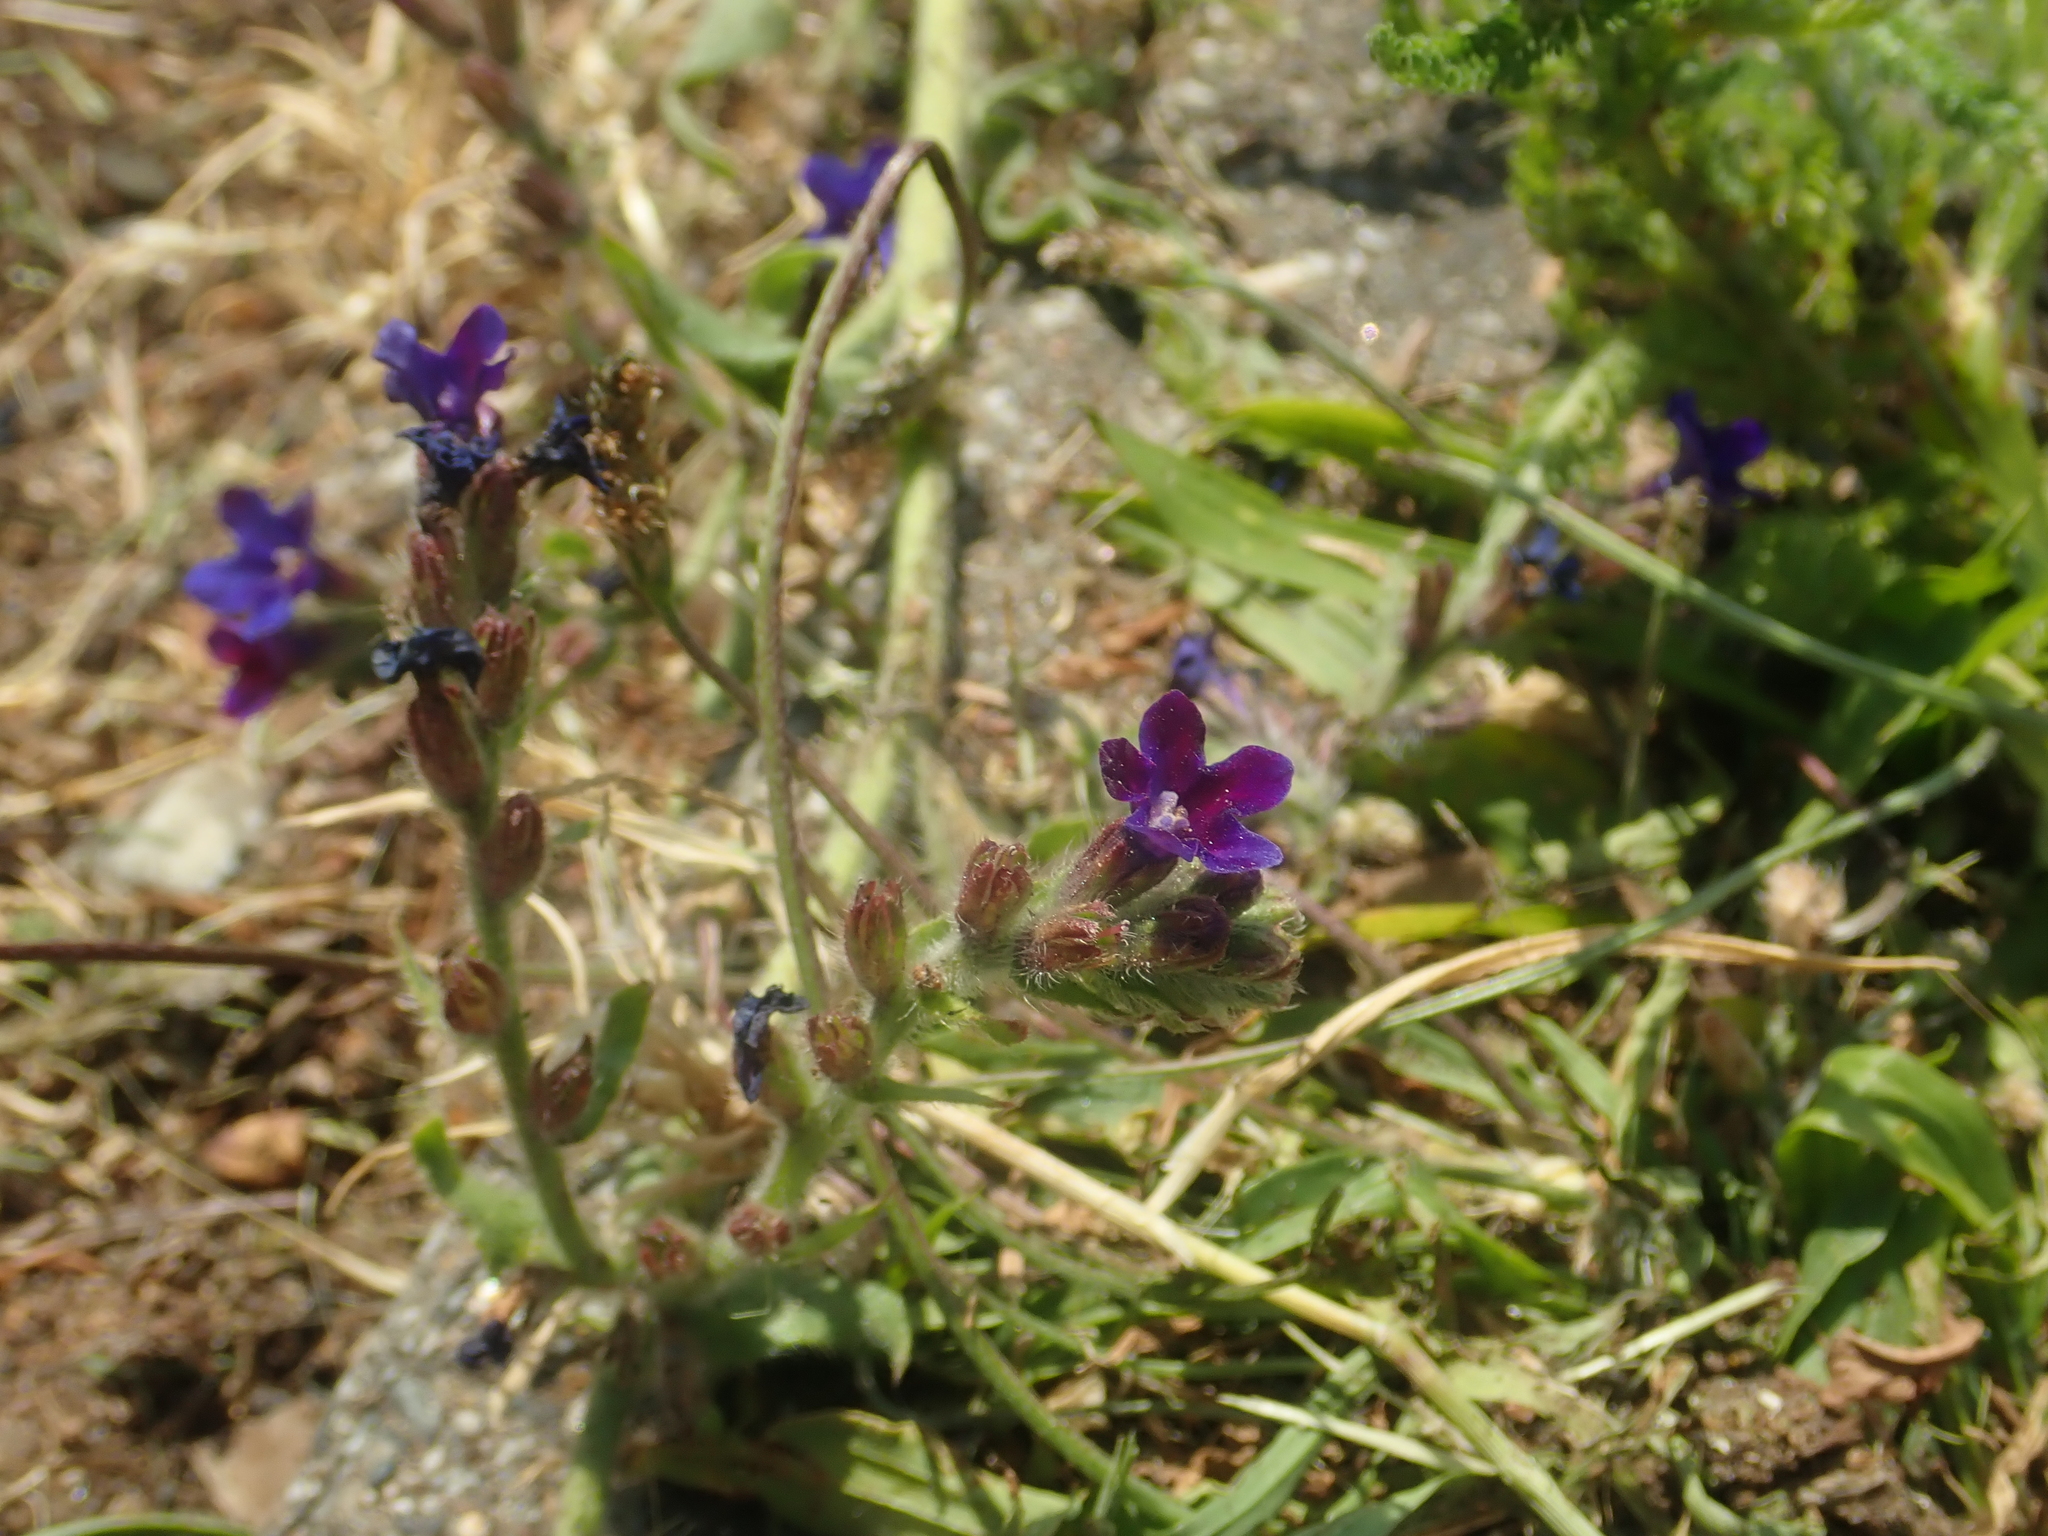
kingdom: Plantae
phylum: Tracheophyta
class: Magnoliopsida
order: Boraginales
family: Boraginaceae
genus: Anchusa
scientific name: Anchusa officinalis
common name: Alkanet
